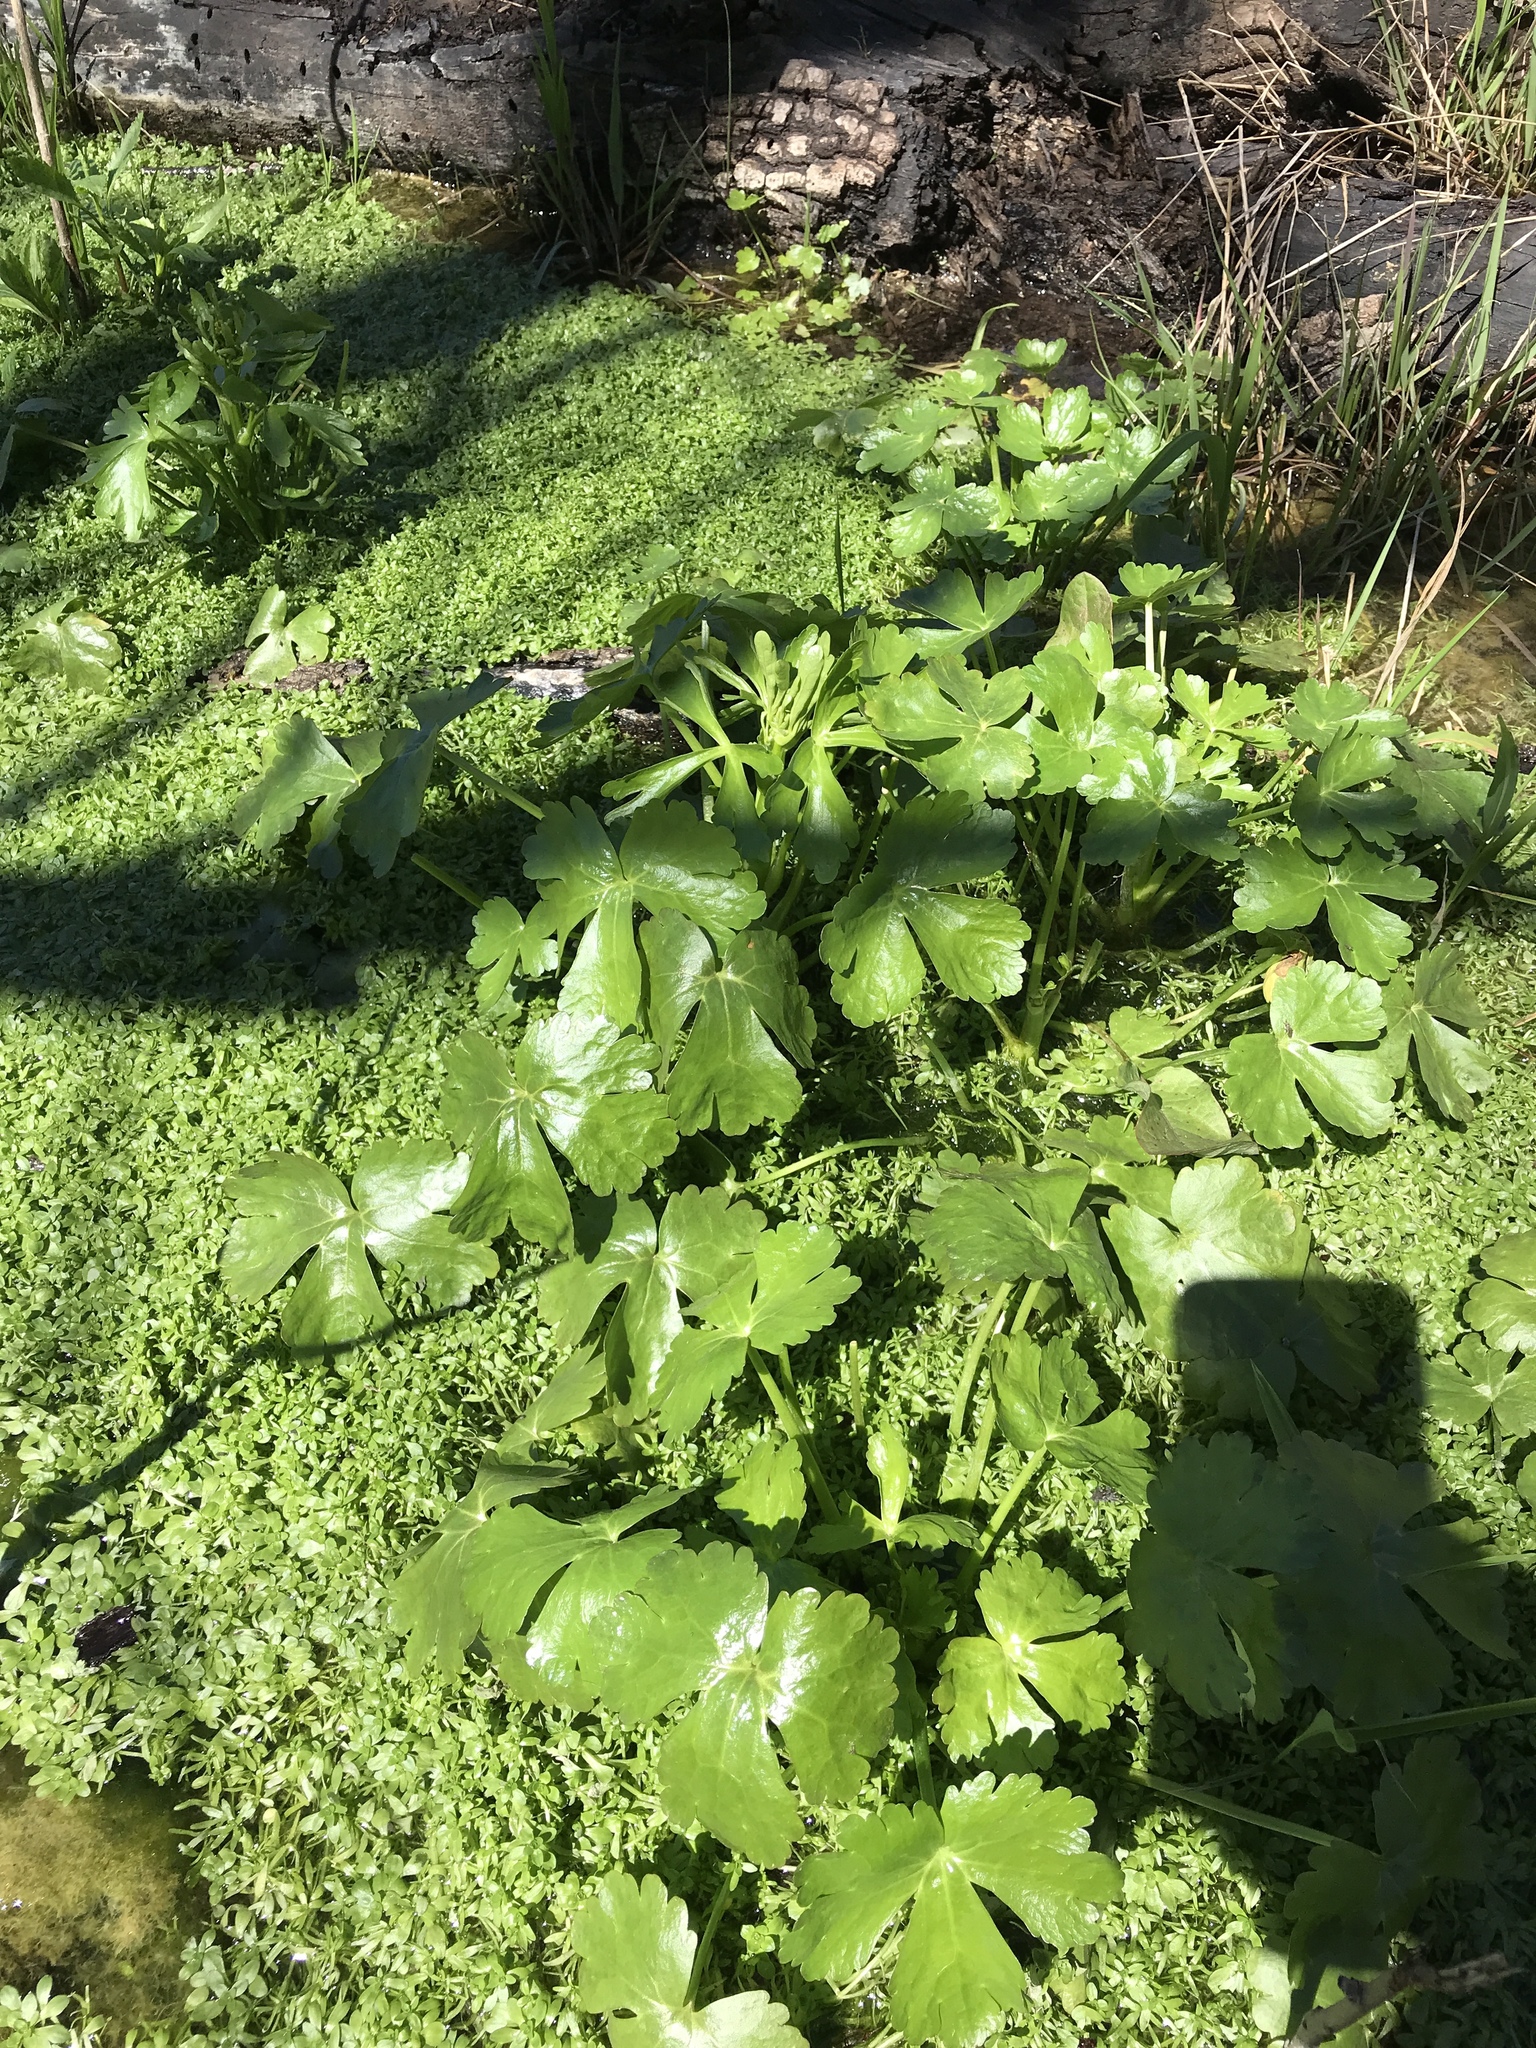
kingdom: Plantae
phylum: Tracheophyta
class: Magnoliopsida
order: Ranunculales
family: Ranunculaceae
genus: Ranunculus
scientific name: Ranunculus sceleratus
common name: Celery-leaved buttercup
